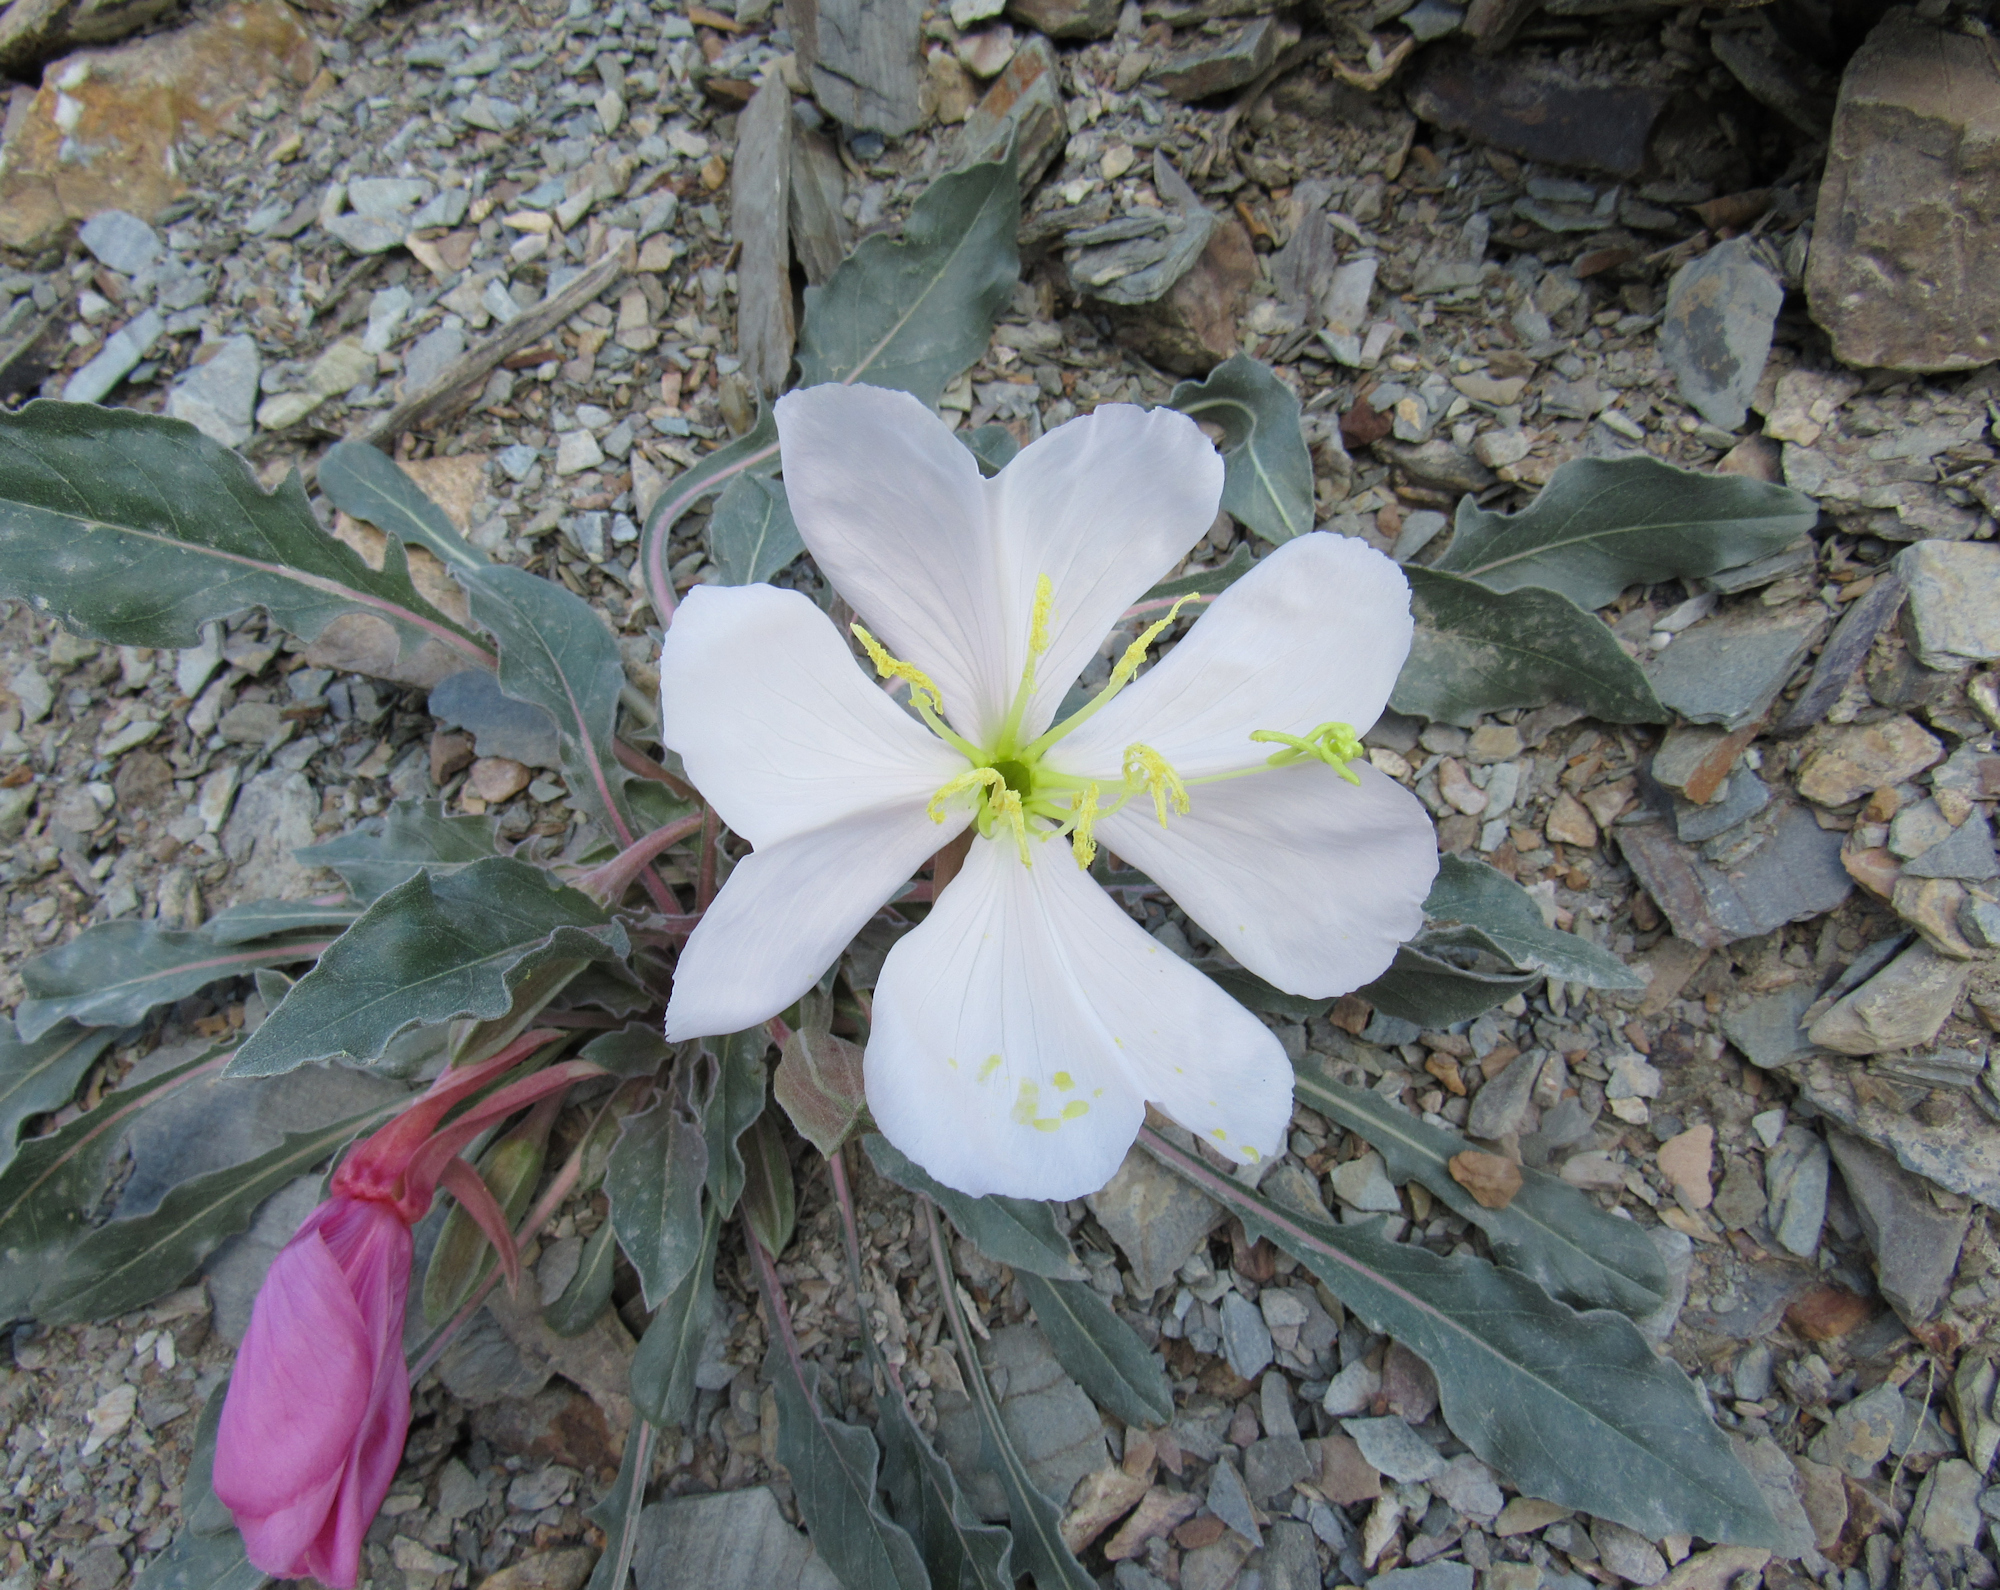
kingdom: Plantae
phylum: Tracheophyta
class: Magnoliopsida
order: Myrtales
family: Onagraceae
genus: Oenothera
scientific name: Oenothera cespitosa
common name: Tufted evening-primrose
